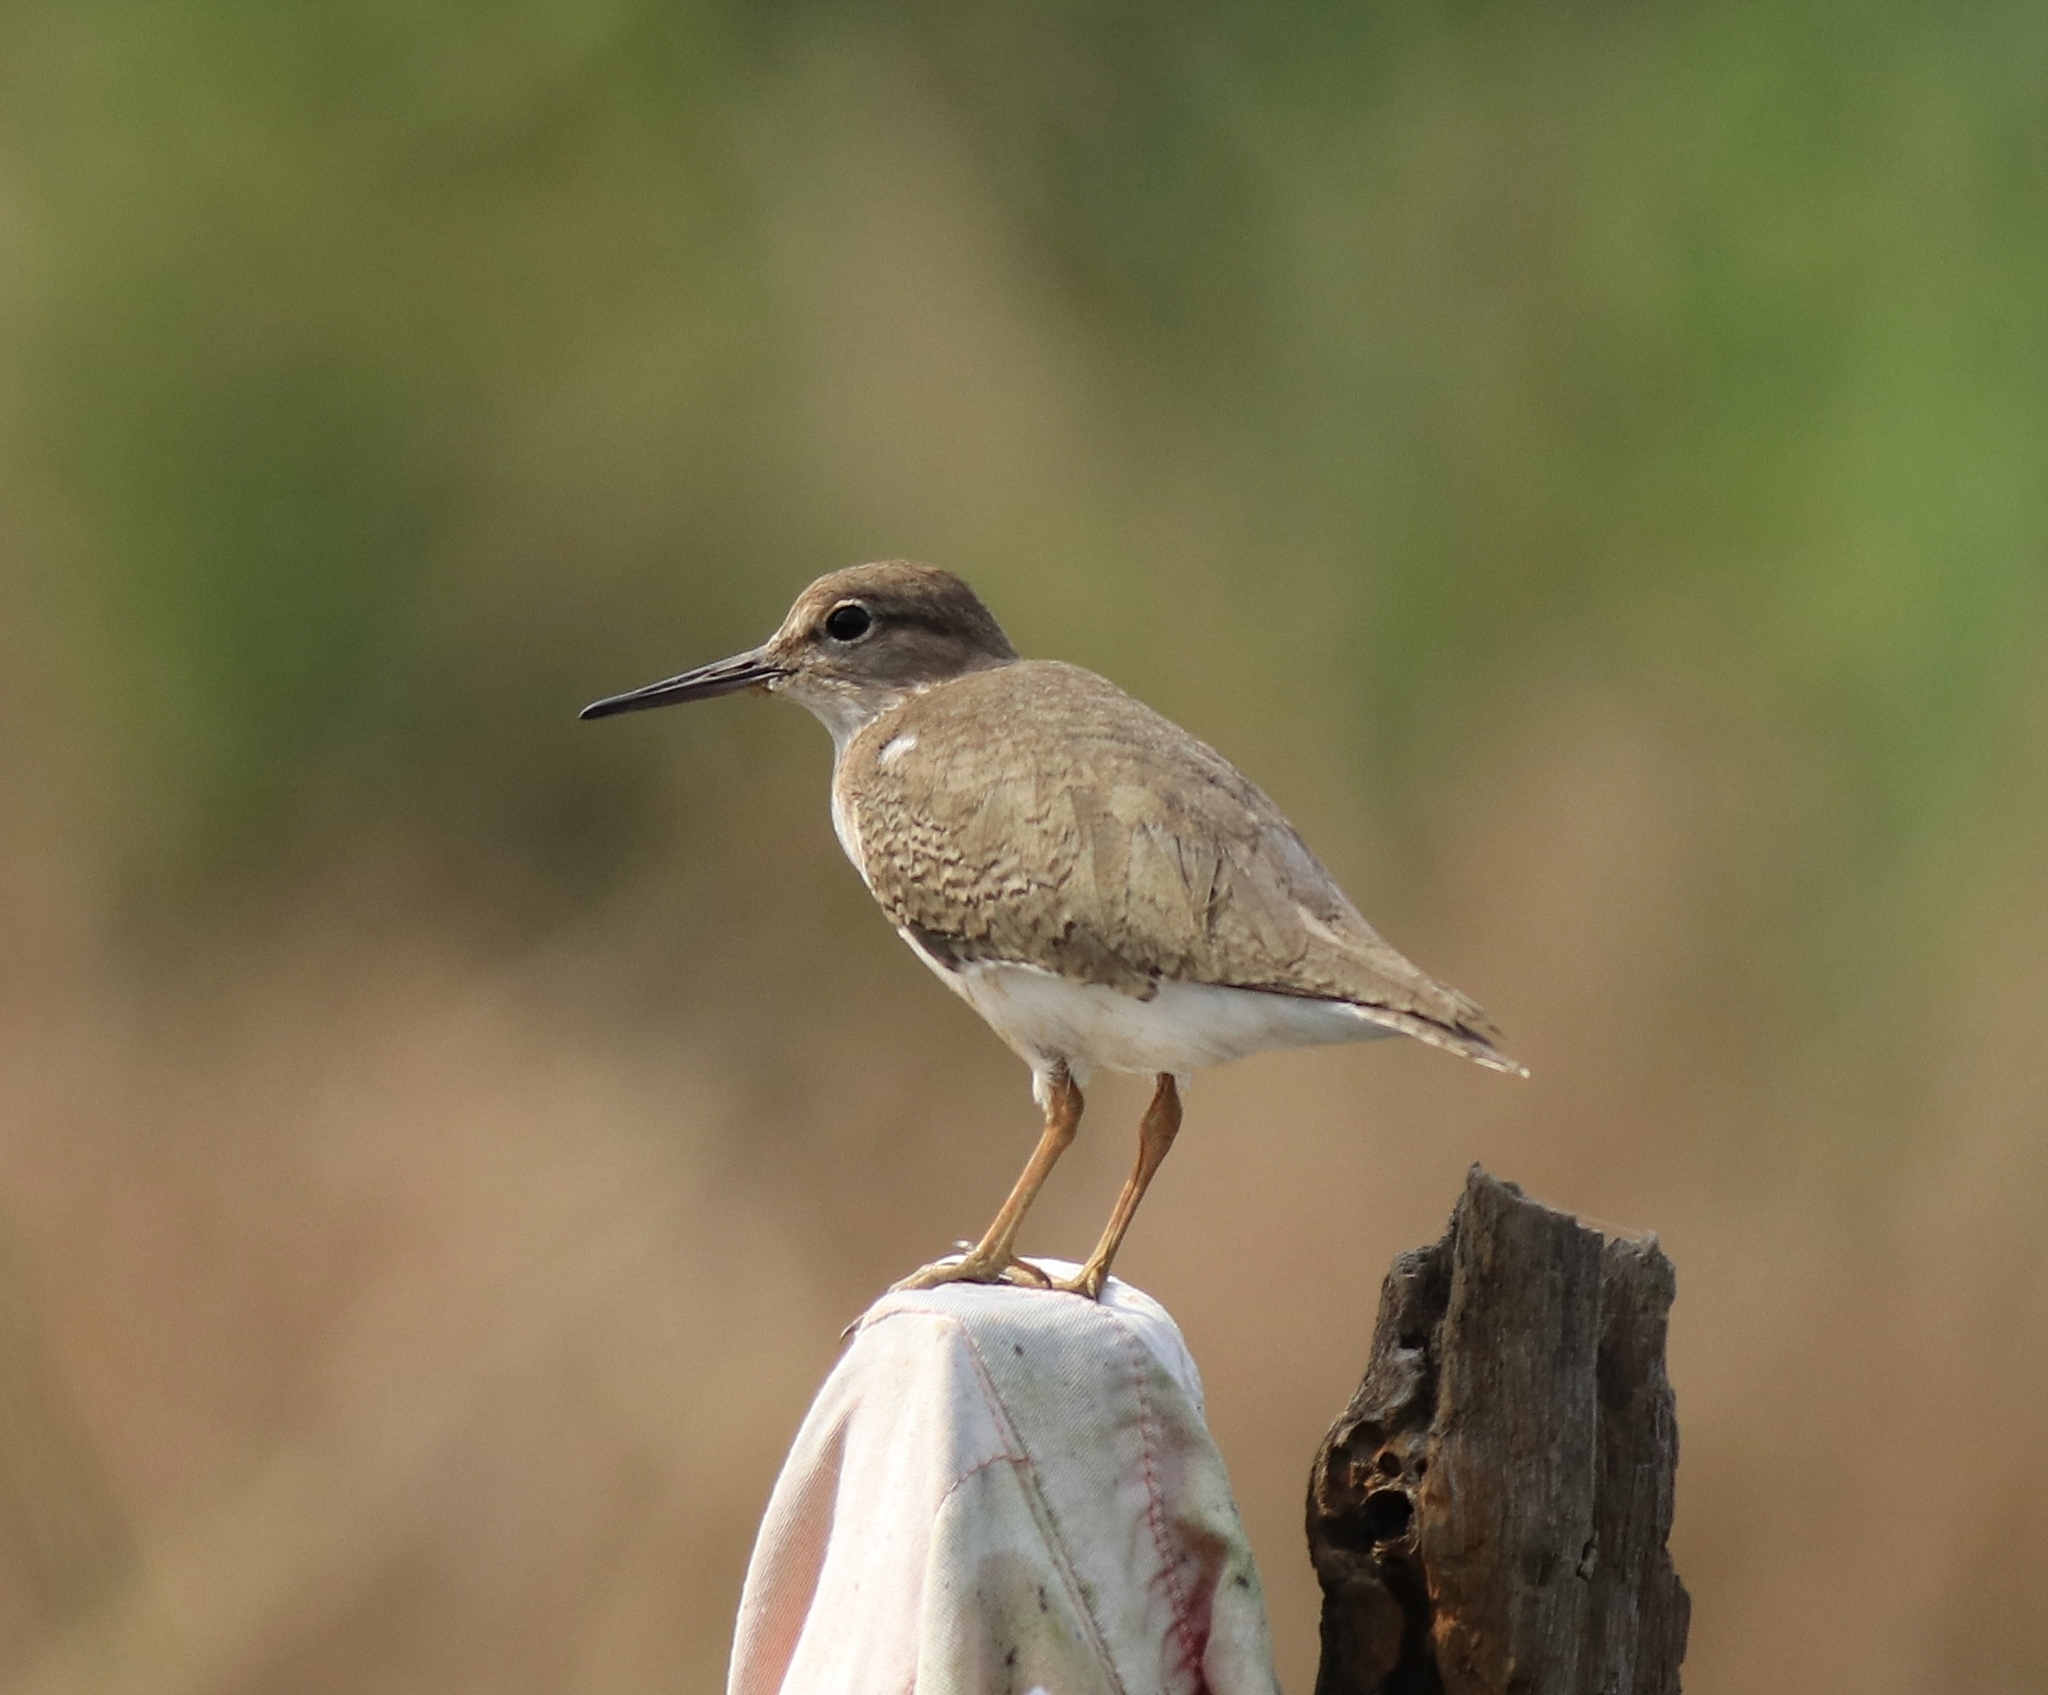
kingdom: Animalia
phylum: Chordata
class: Aves
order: Charadriiformes
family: Scolopacidae
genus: Actitis
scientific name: Actitis hypoleucos
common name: Common sandpiper
